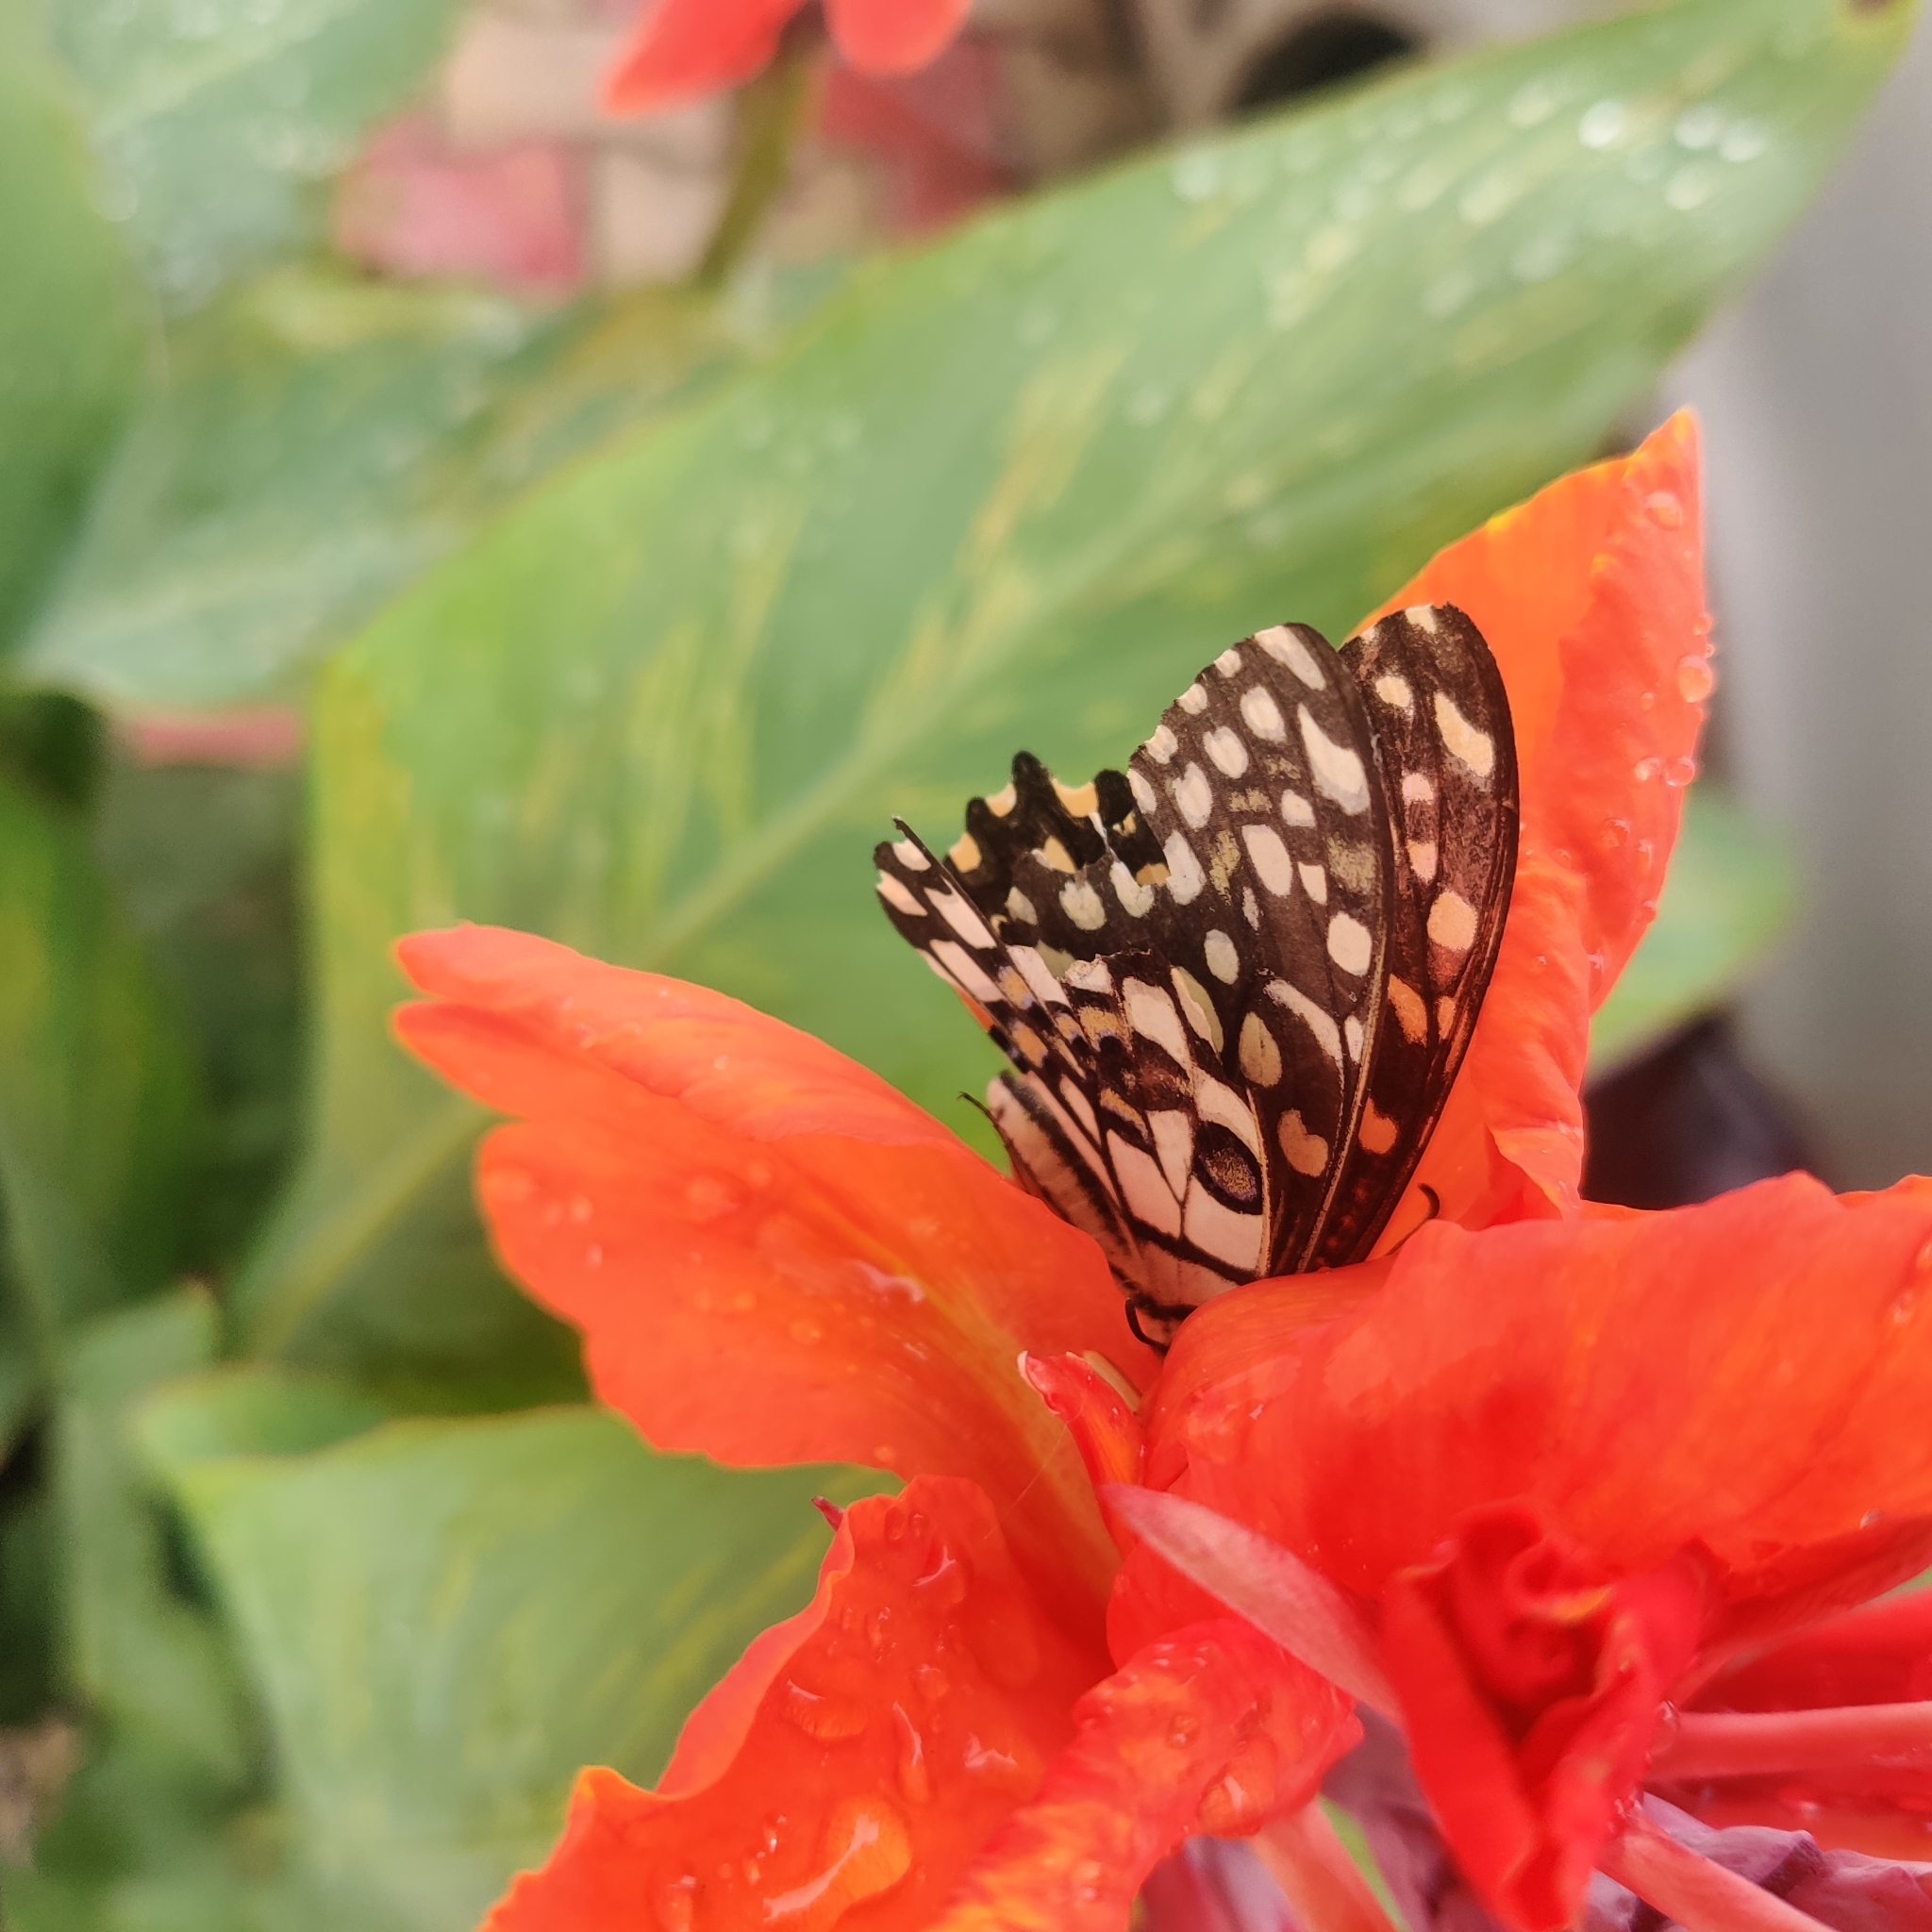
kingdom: Animalia
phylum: Arthropoda
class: Insecta
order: Lepidoptera
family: Papilionidae
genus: Papilio
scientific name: Papilio demoleus
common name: Lime butterfly
